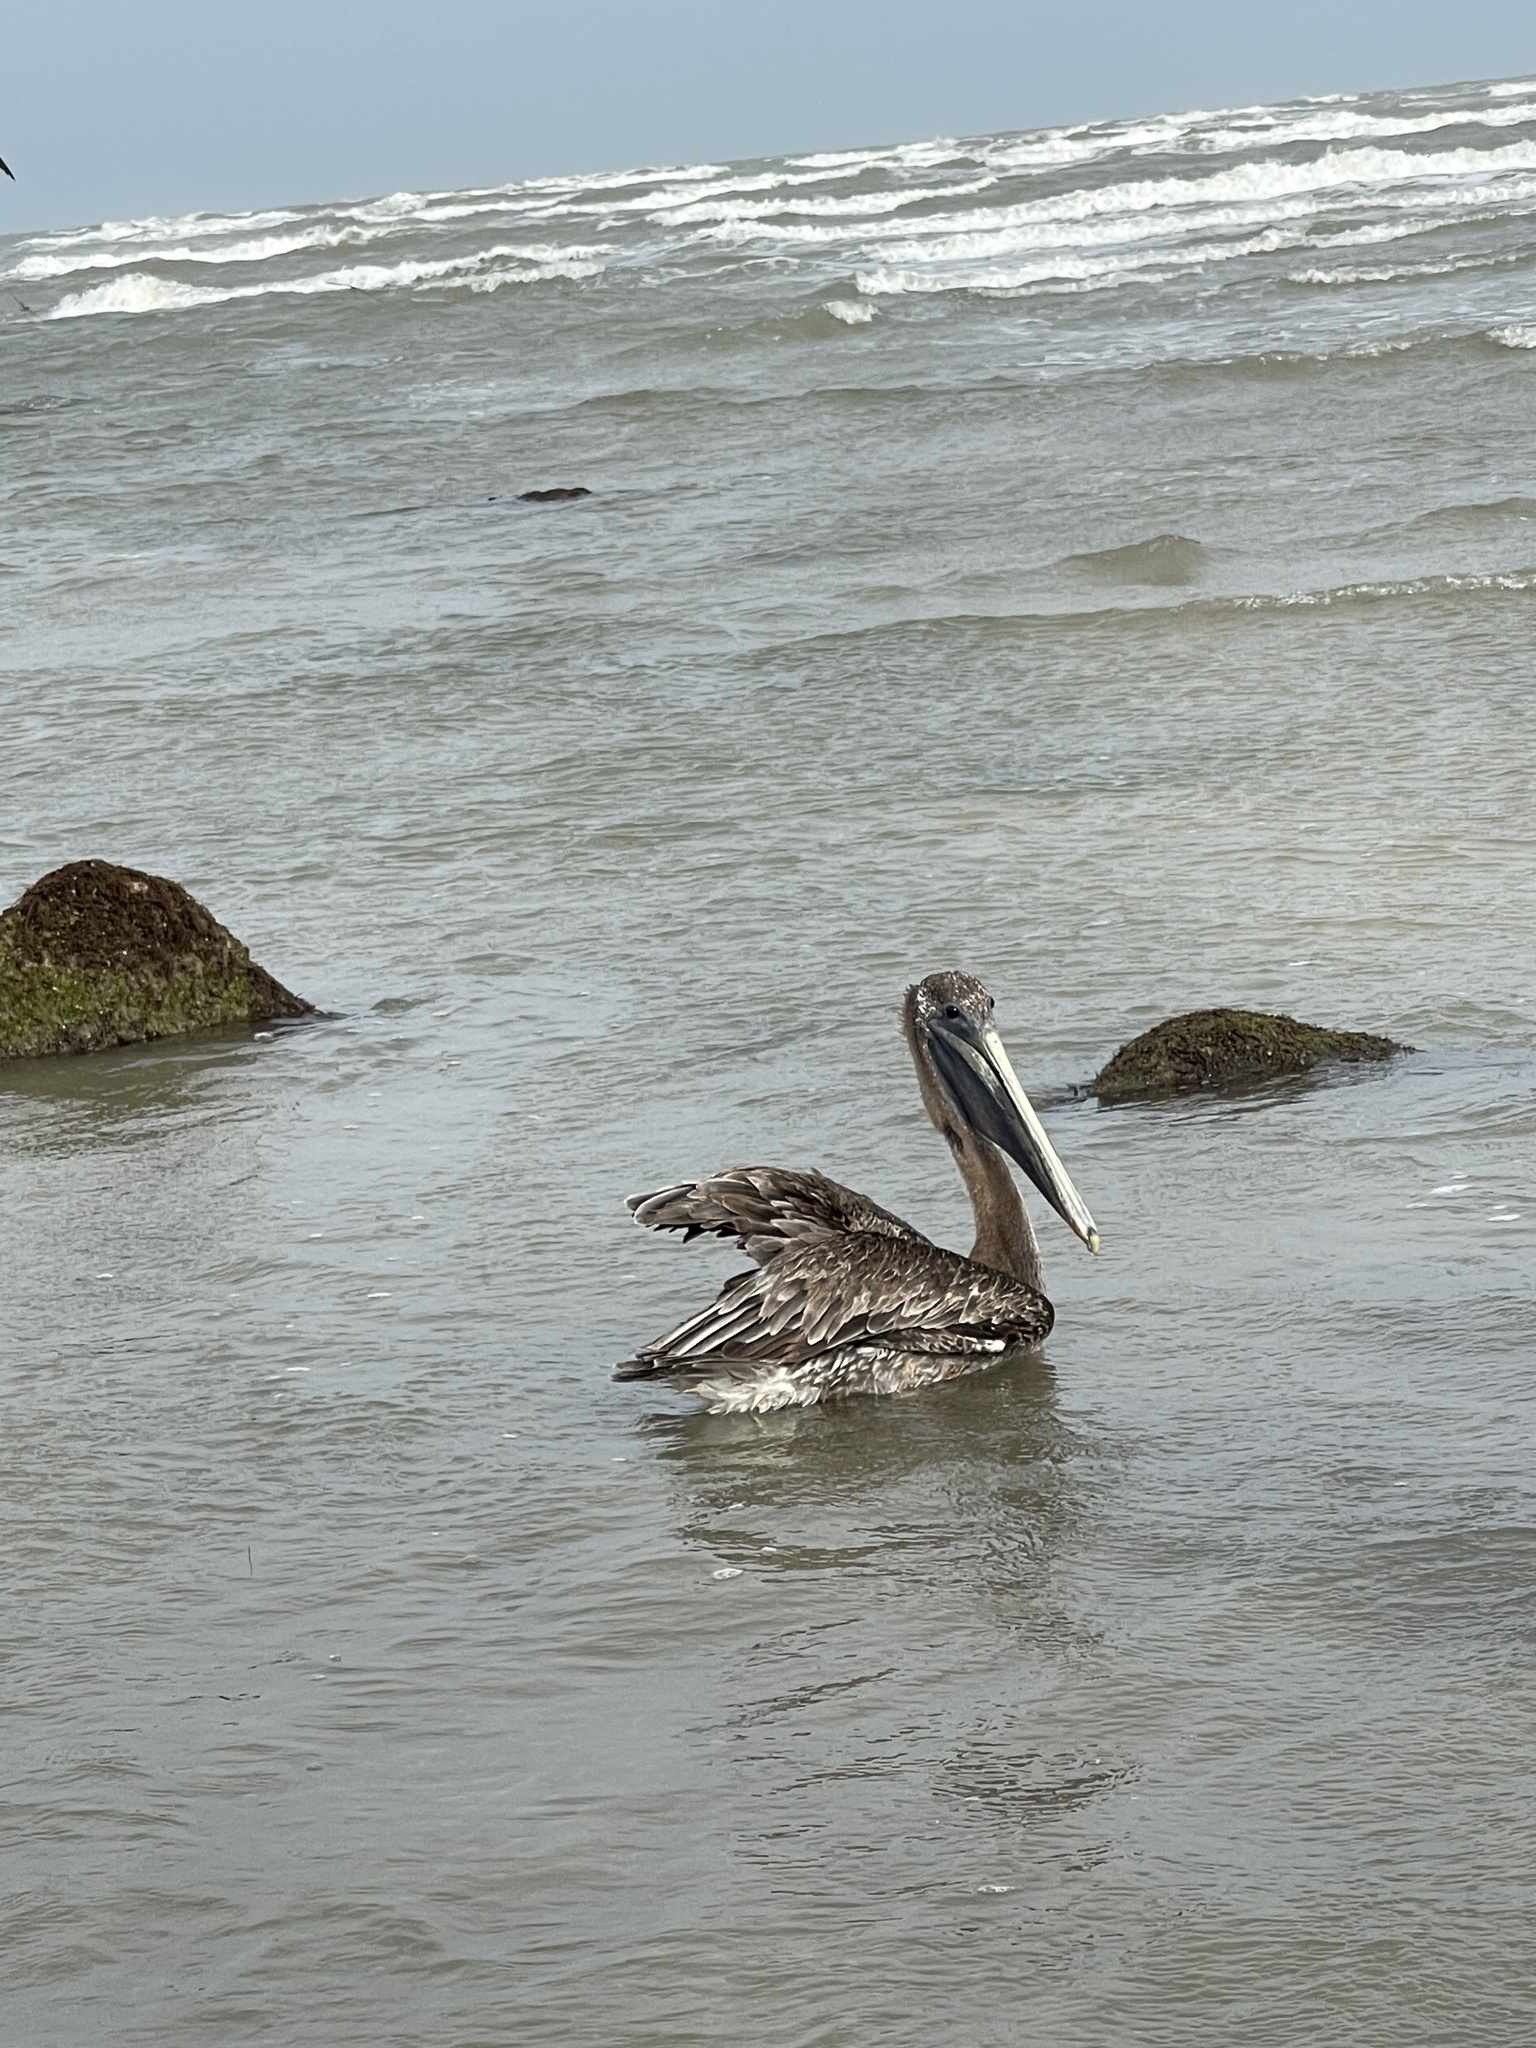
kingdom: Animalia
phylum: Chordata
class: Aves
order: Pelecaniformes
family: Pelecanidae
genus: Pelecanus
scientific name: Pelecanus occidentalis
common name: Brown pelican
